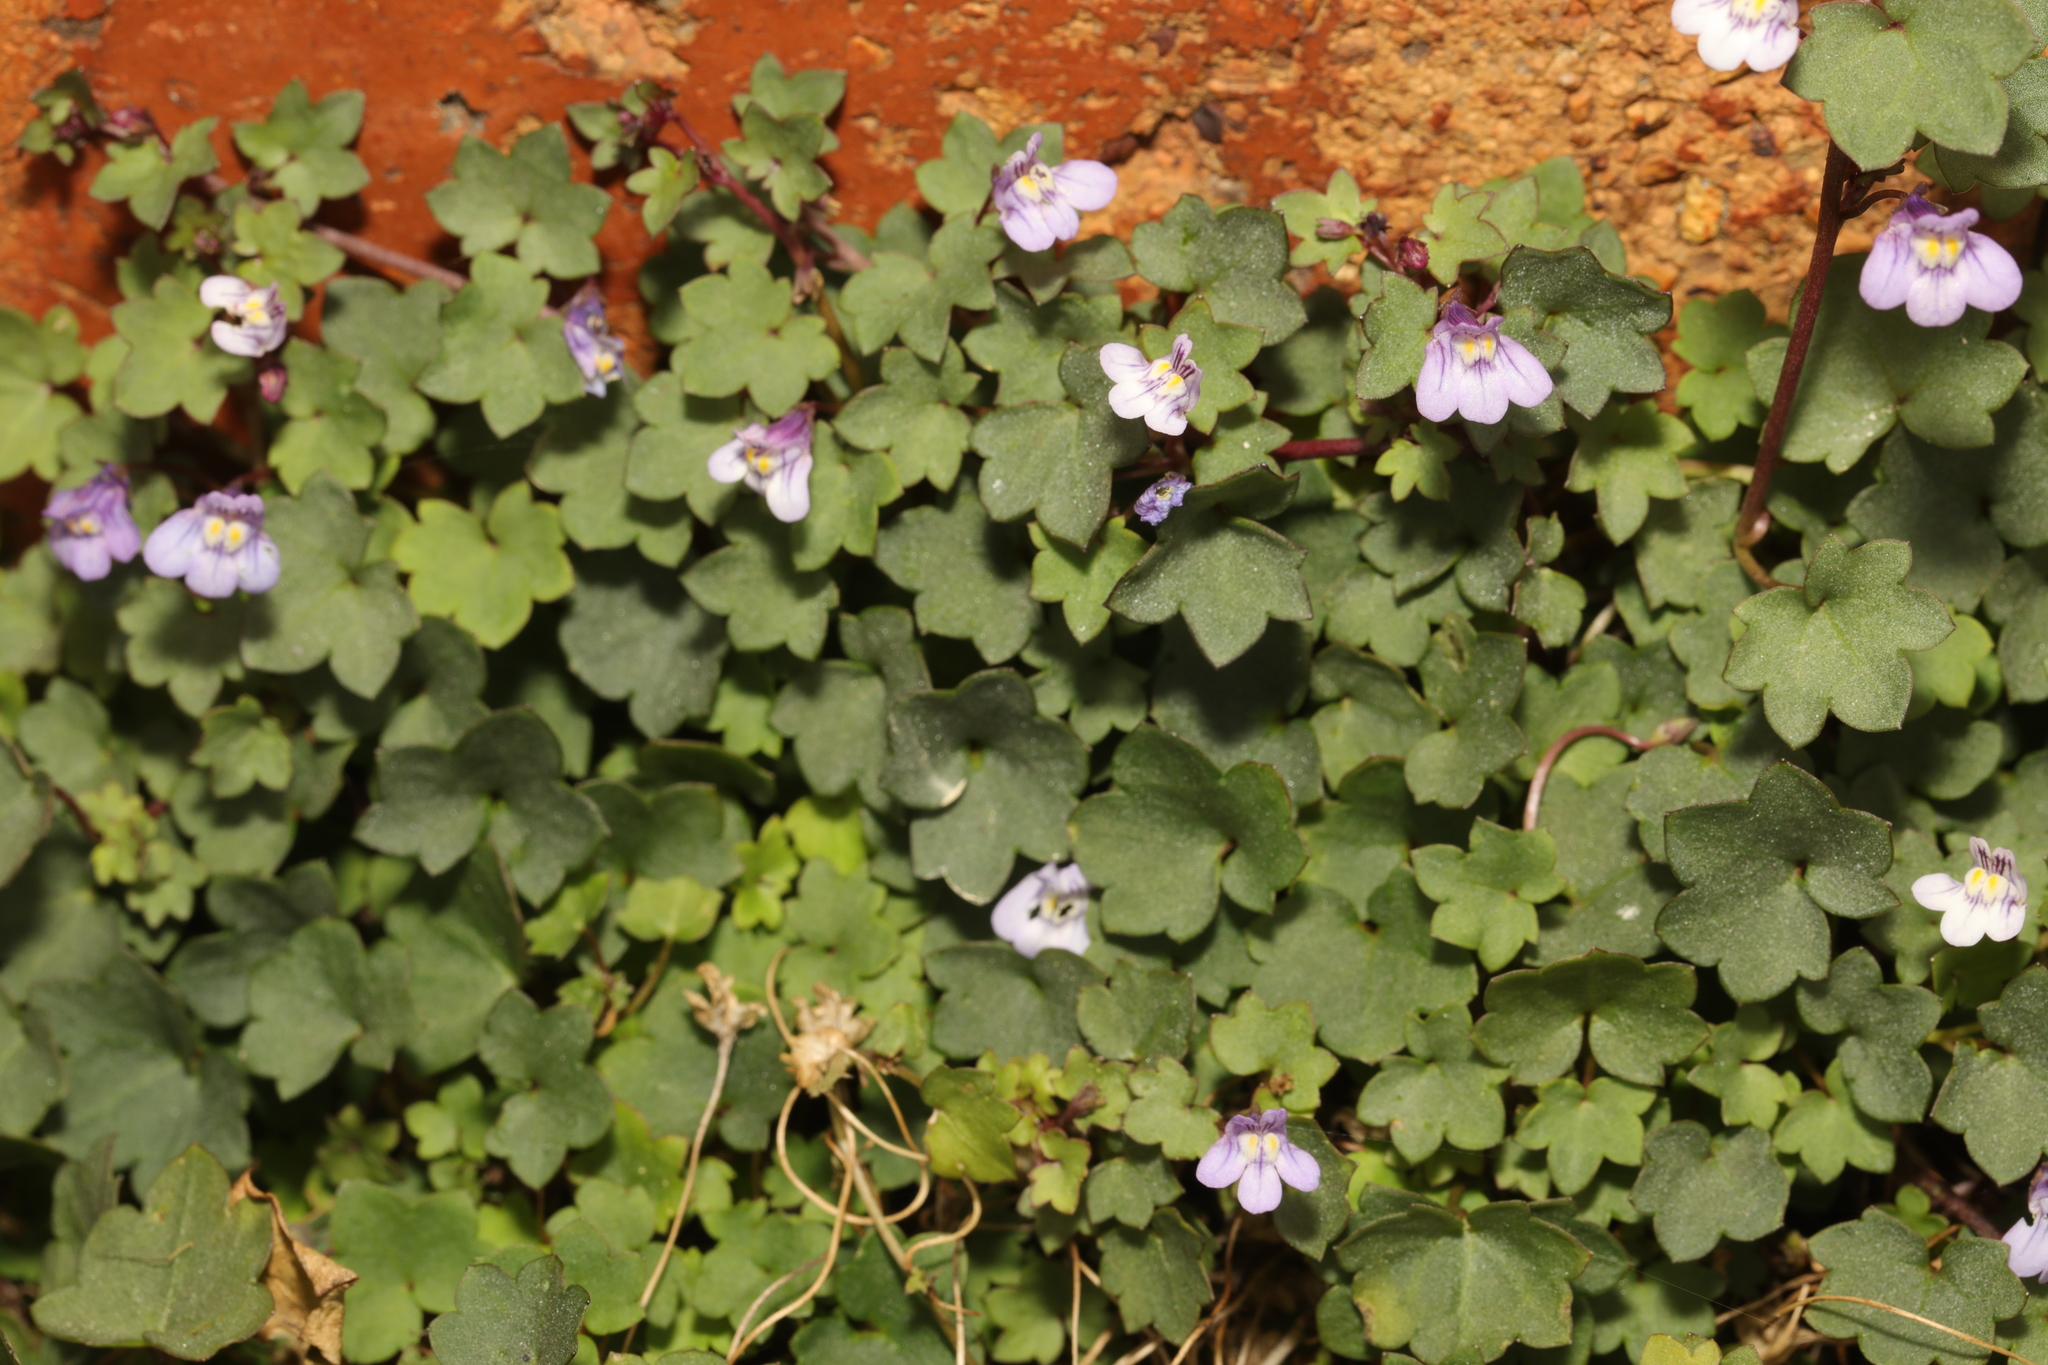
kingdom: Plantae
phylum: Tracheophyta
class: Magnoliopsida
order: Lamiales
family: Plantaginaceae
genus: Cymbalaria
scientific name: Cymbalaria muralis
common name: Ivy-leaved toadflax
